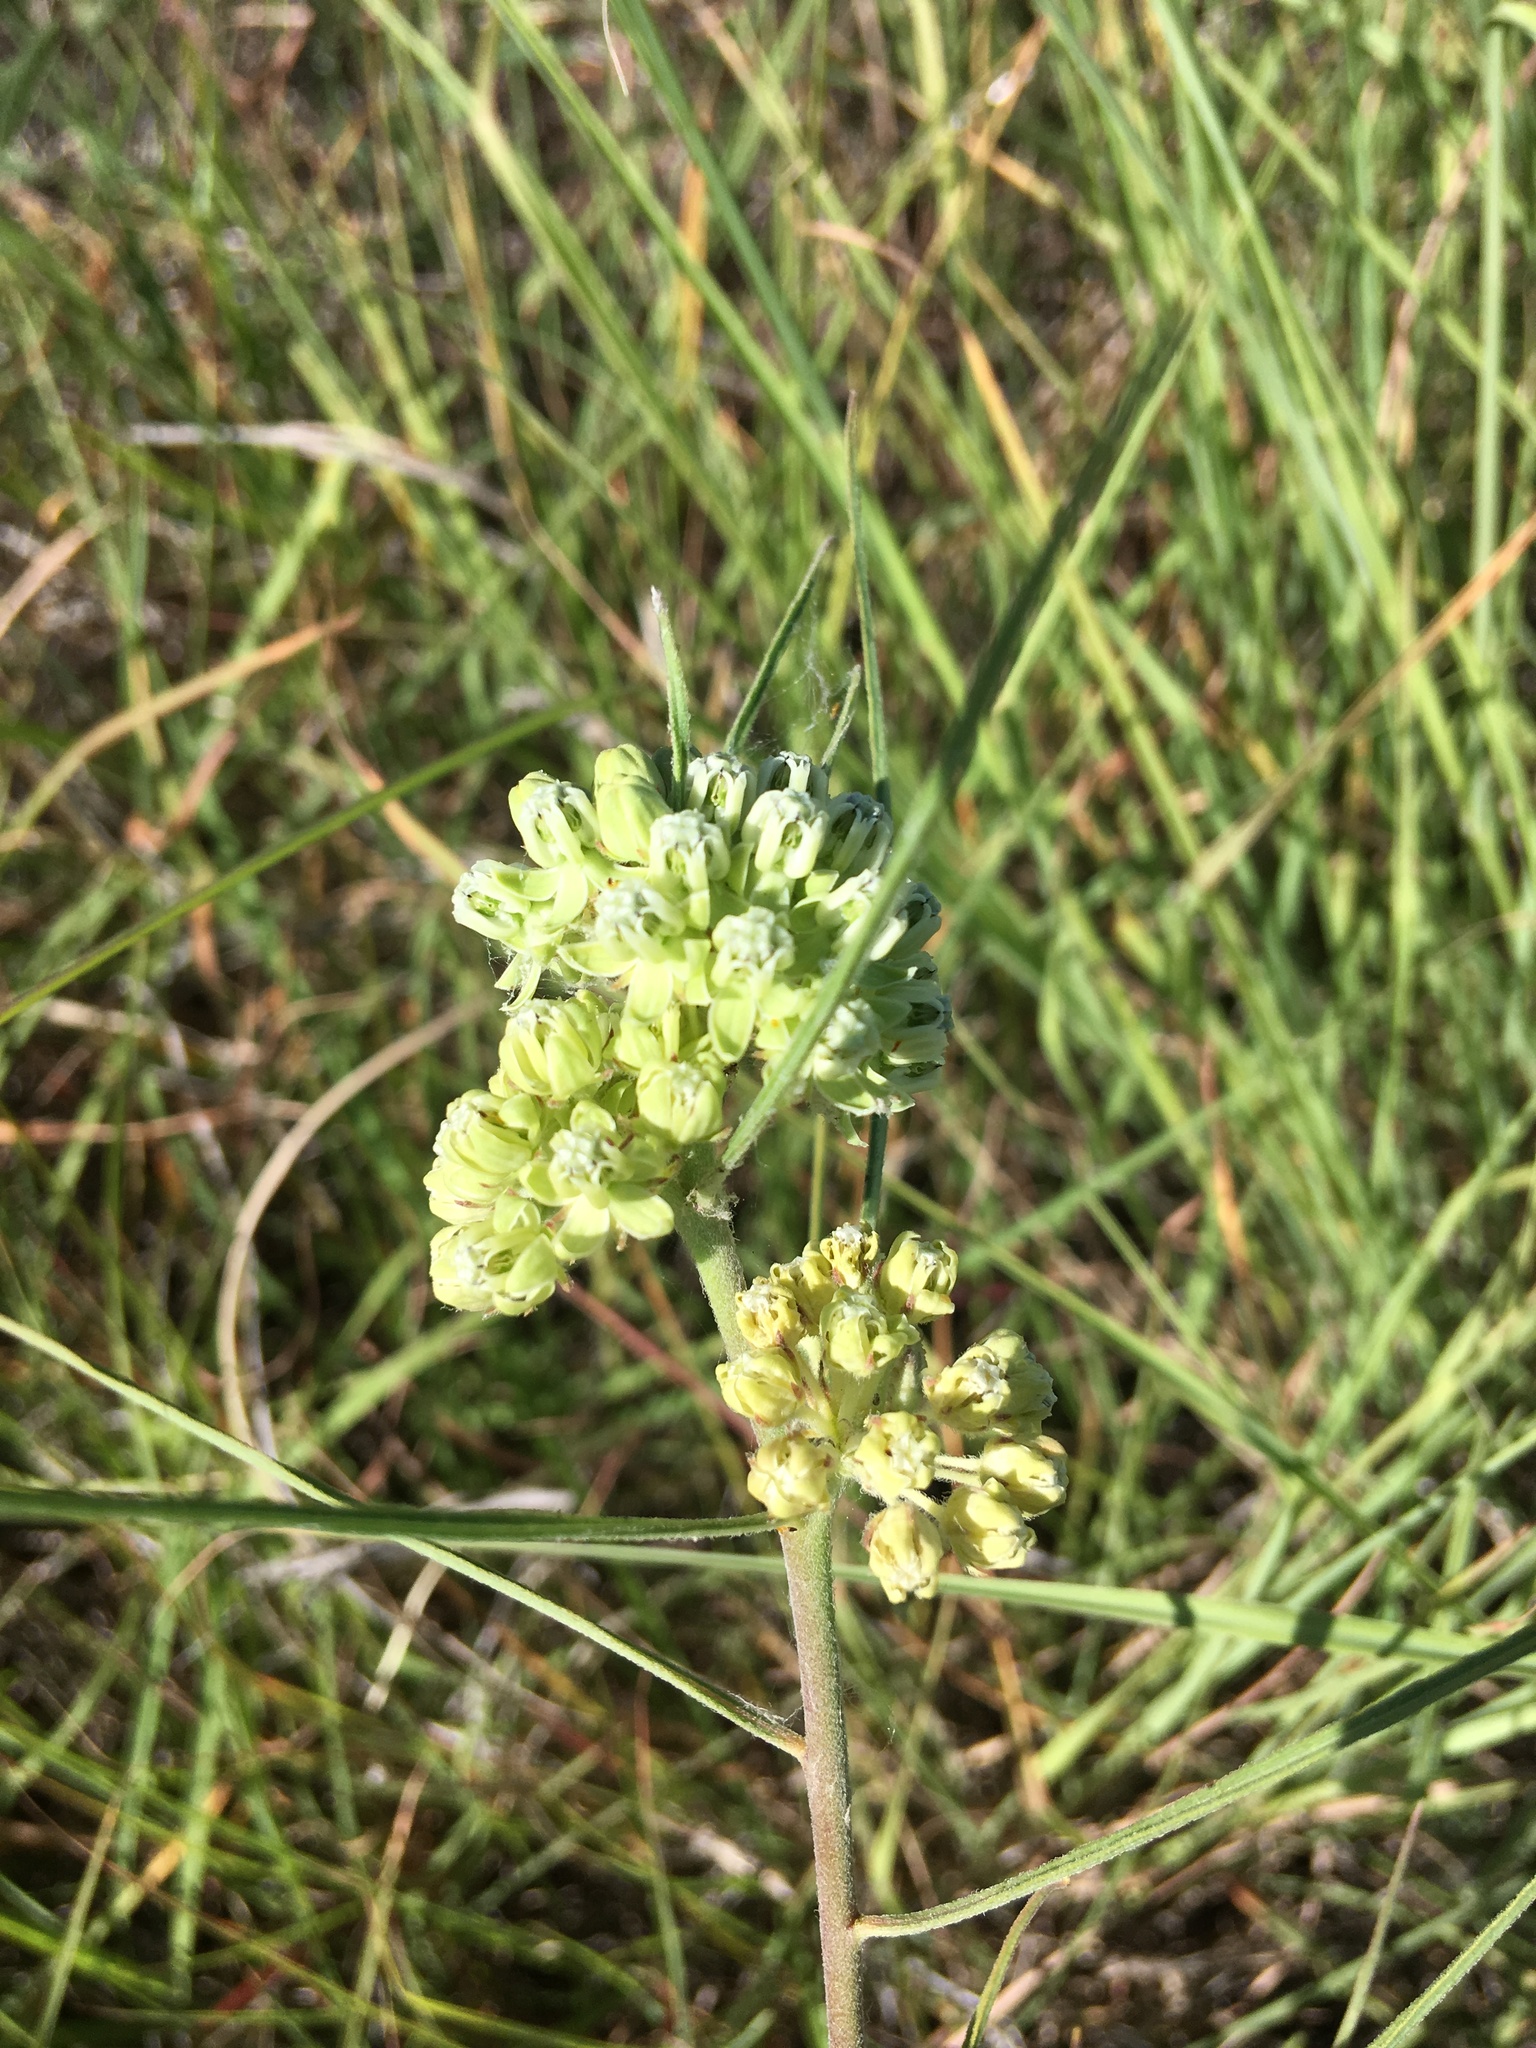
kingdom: Plantae
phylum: Tracheophyta
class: Magnoliopsida
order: Gentianales
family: Apocynaceae
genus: Asclepias
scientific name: Asclepias stenophylla
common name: Narrow-leaf milkweed
